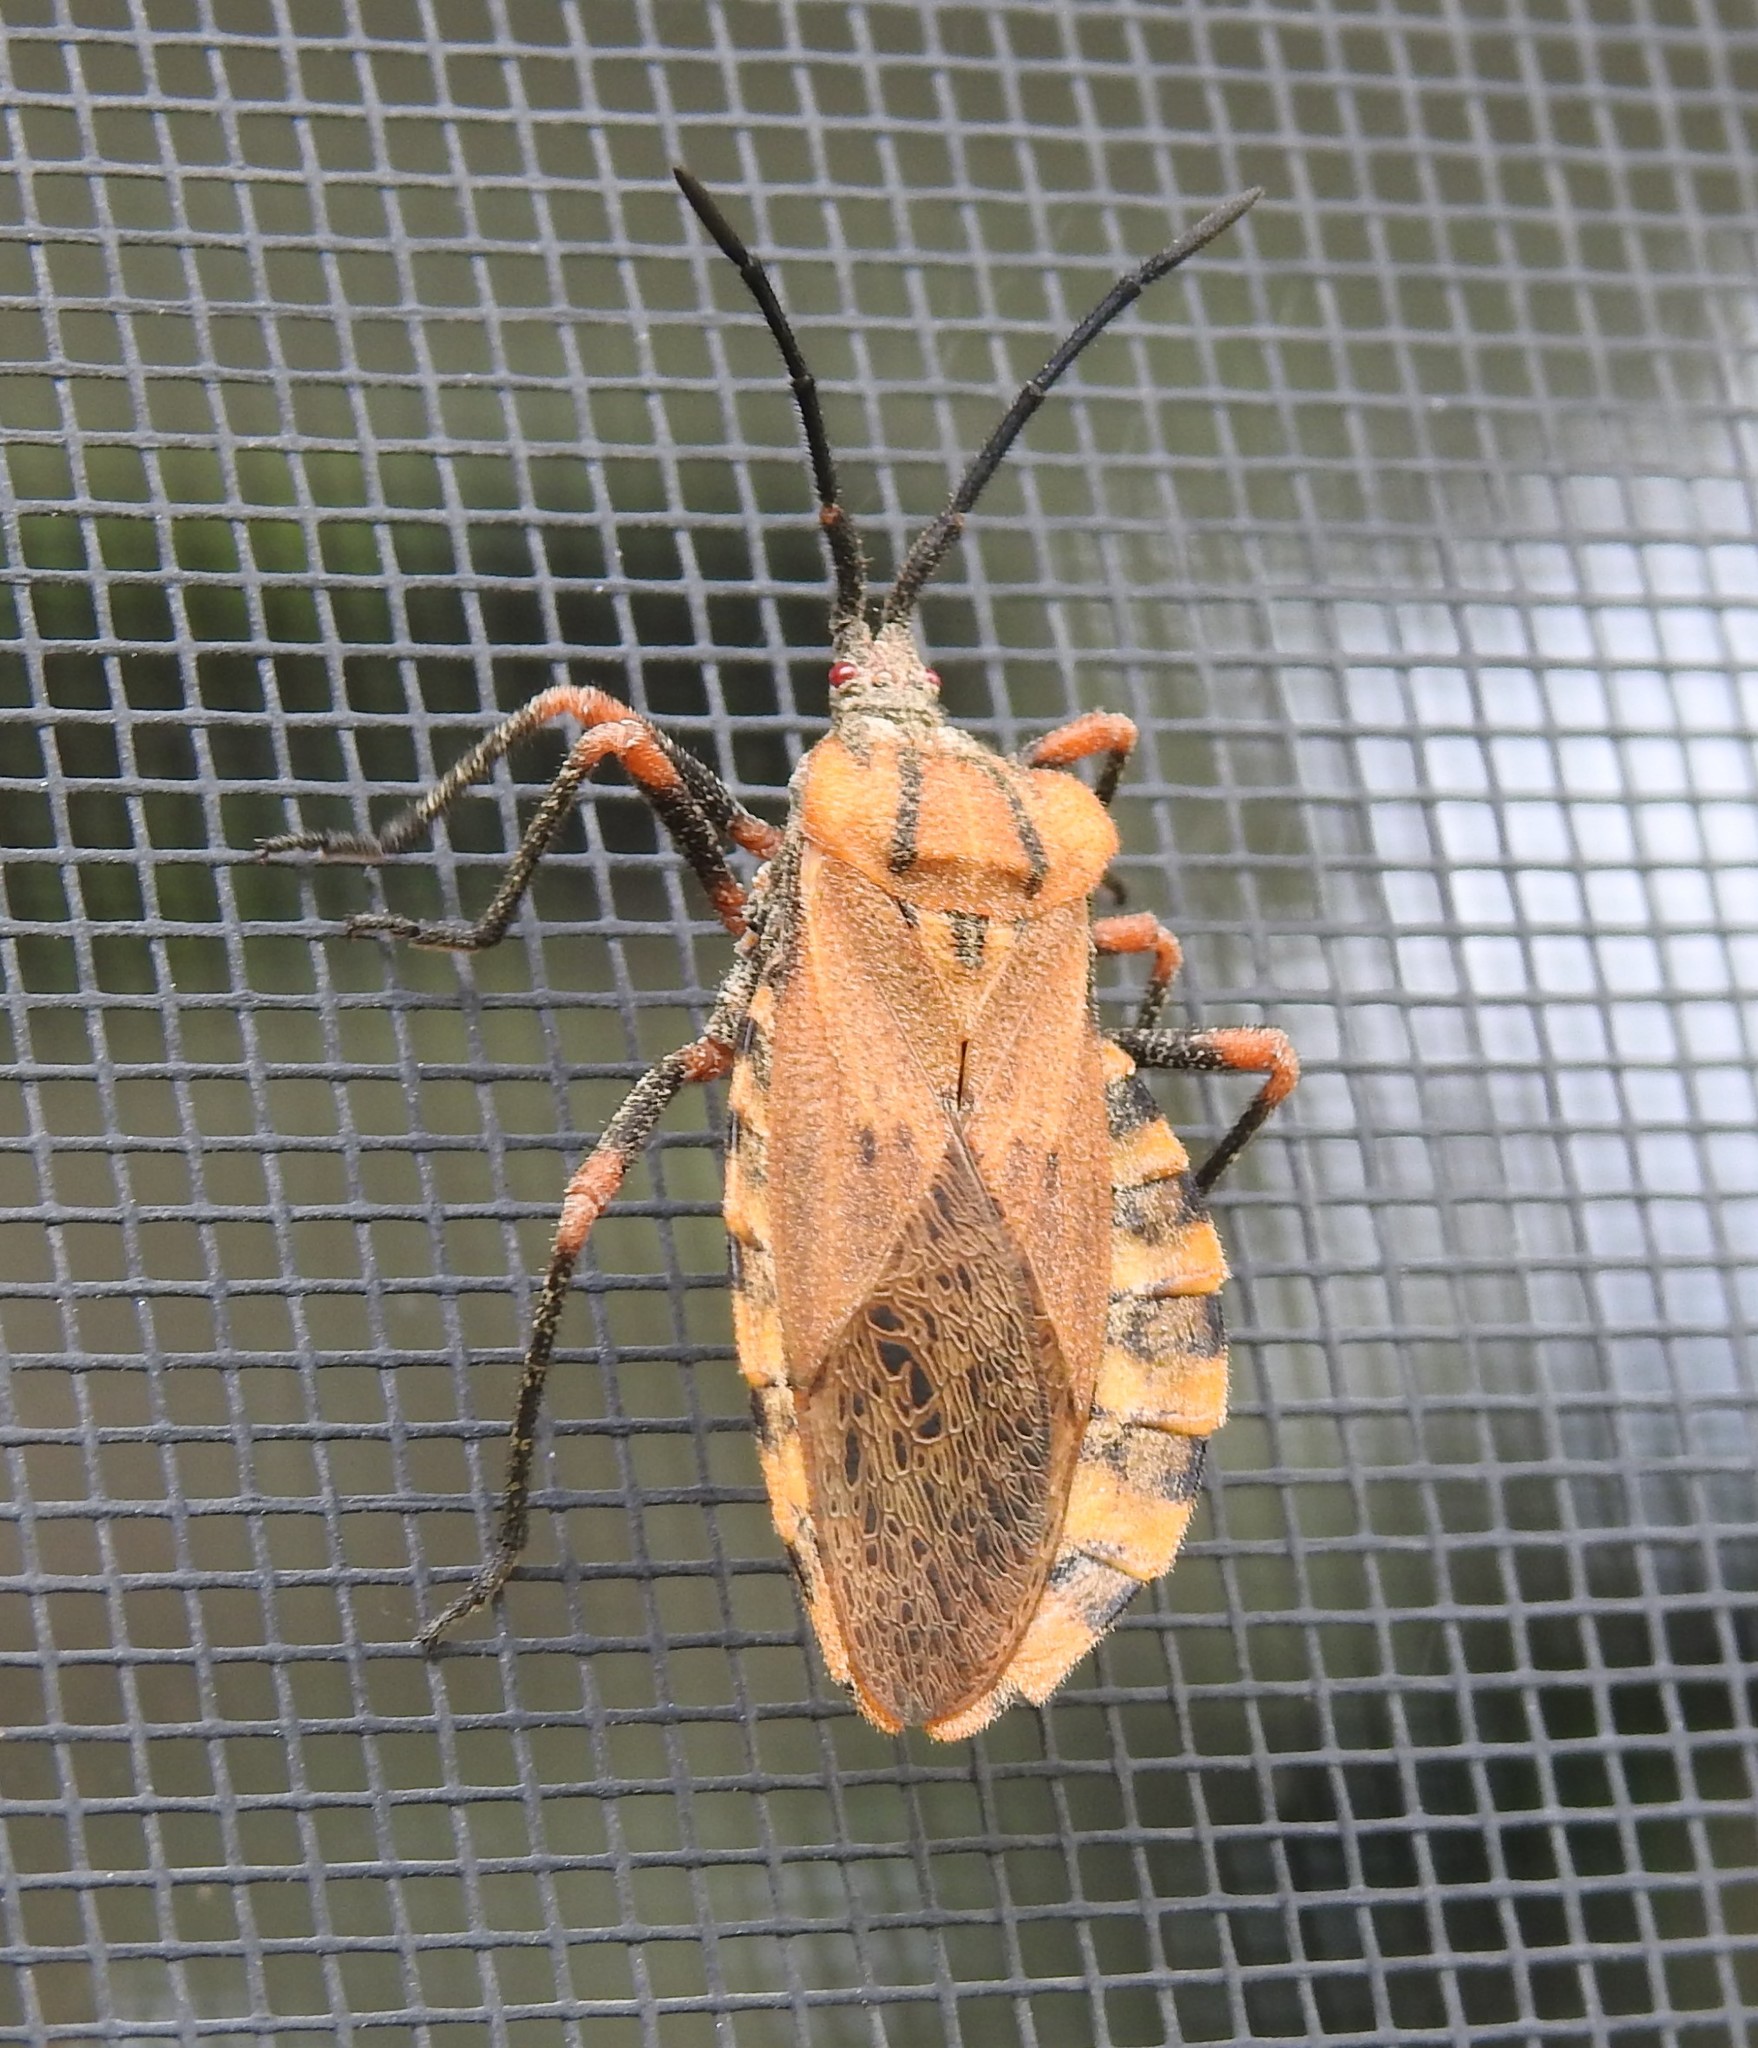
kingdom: Animalia
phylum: Arthropoda
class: Insecta
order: Hemiptera
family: Coreidae
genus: Spartocera
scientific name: Spartocera fusca
